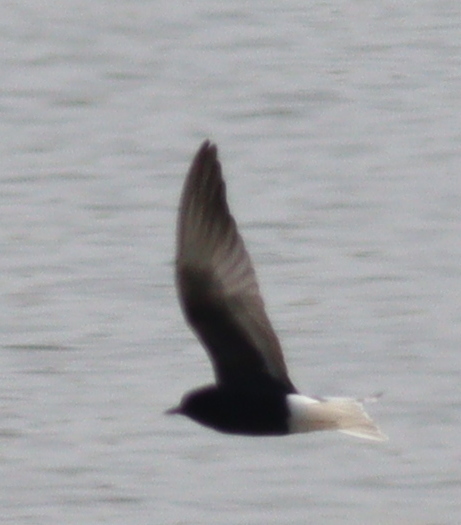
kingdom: Animalia
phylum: Chordata
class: Aves
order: Charadriiformes
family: Laridae
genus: Chlidonias
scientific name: Chlidonias leucopterus
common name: White-winged tern
